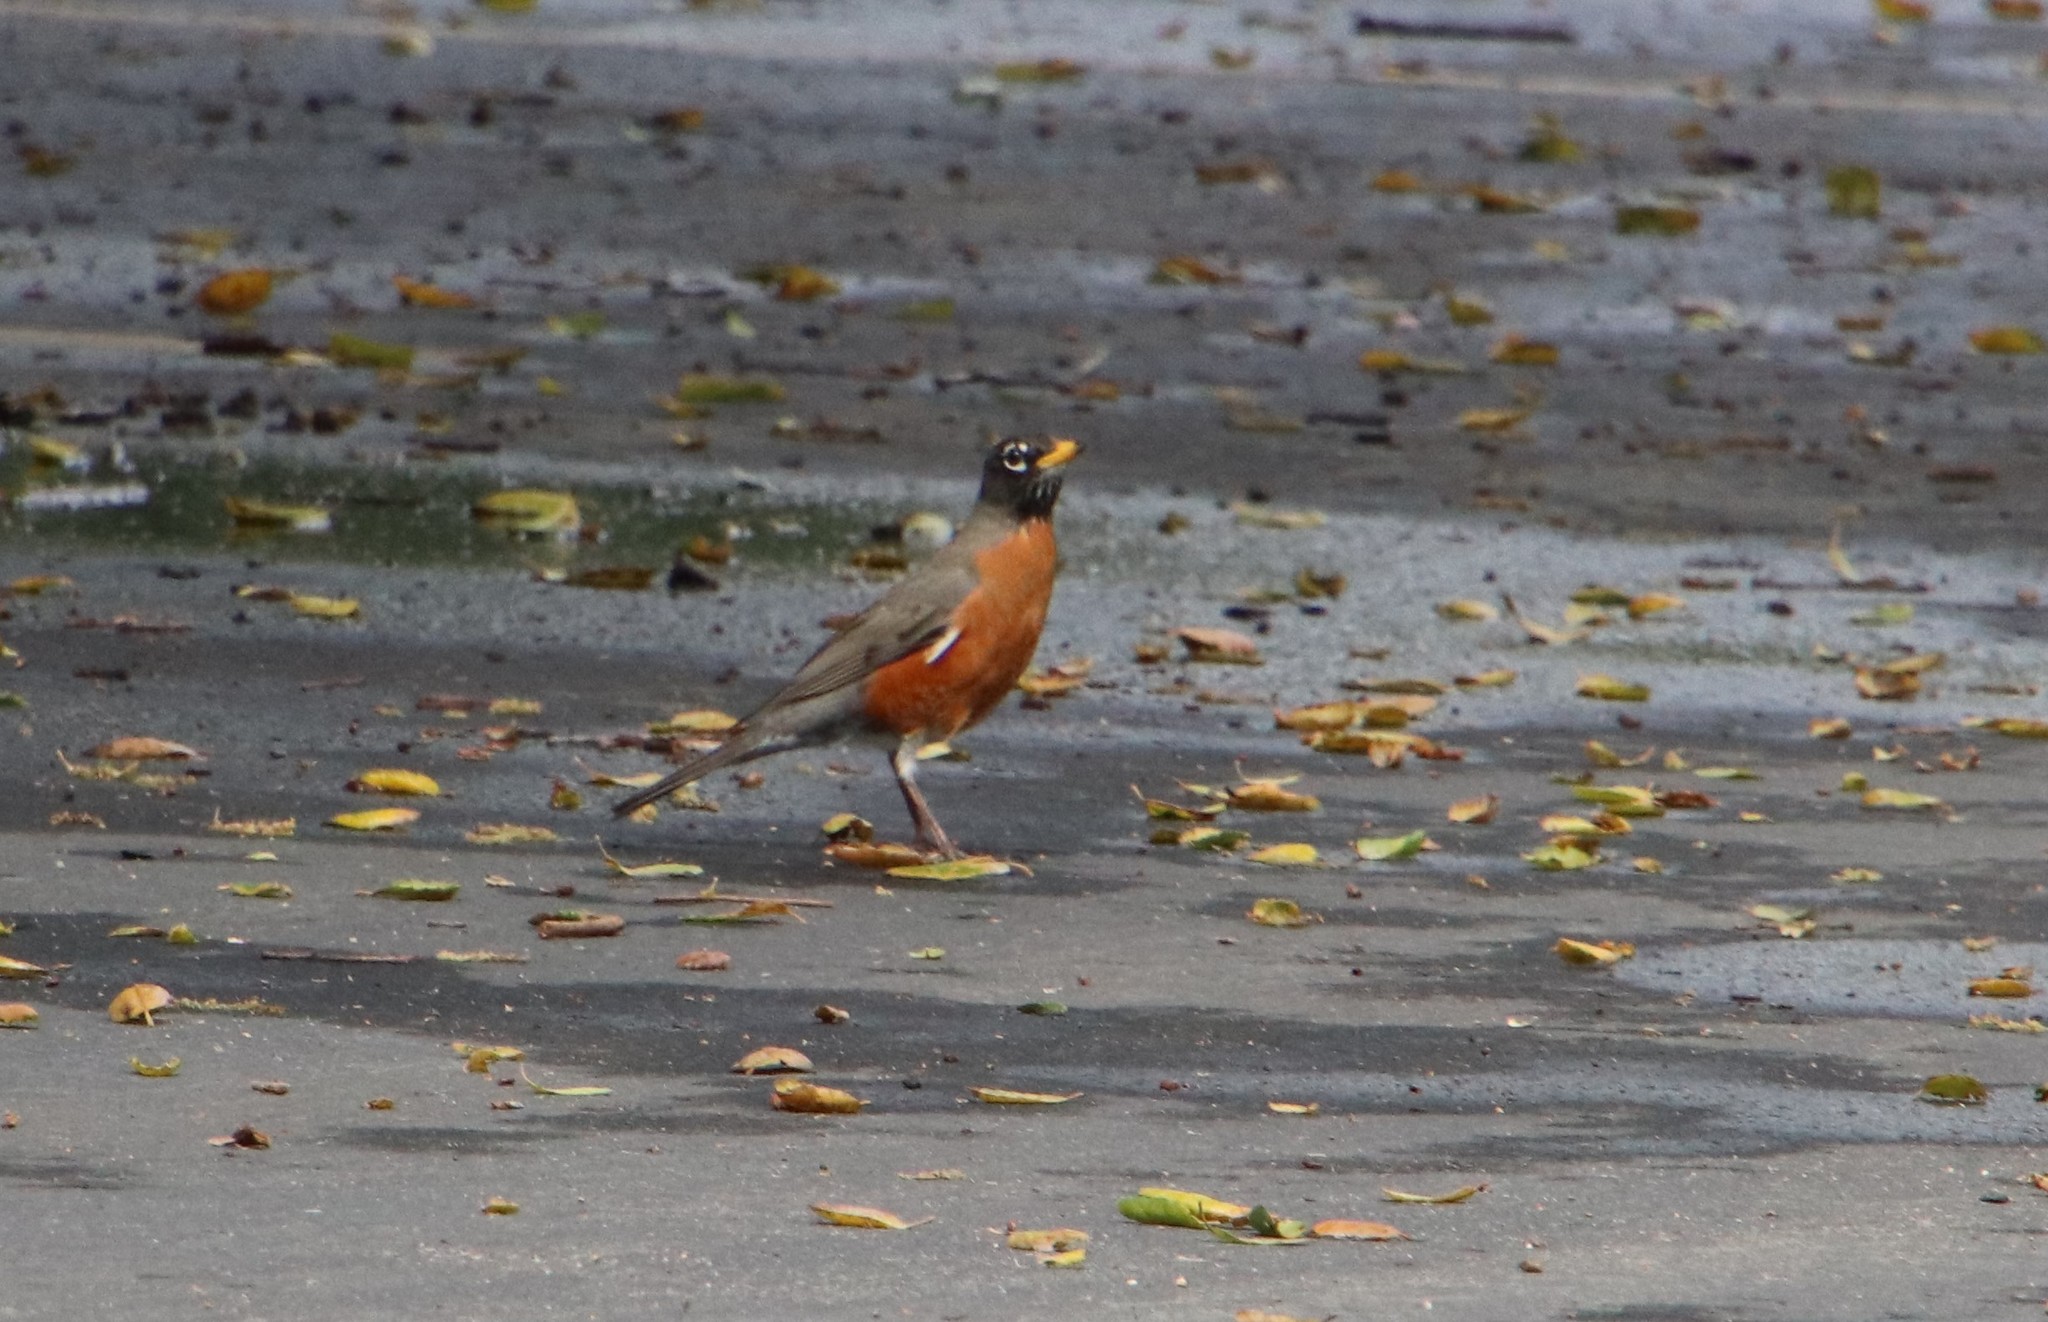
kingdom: Animalia
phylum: Chordata
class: Aves
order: Passeriformes
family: Turdidae
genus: Turdus
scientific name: Turdus migratorius
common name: American robin
